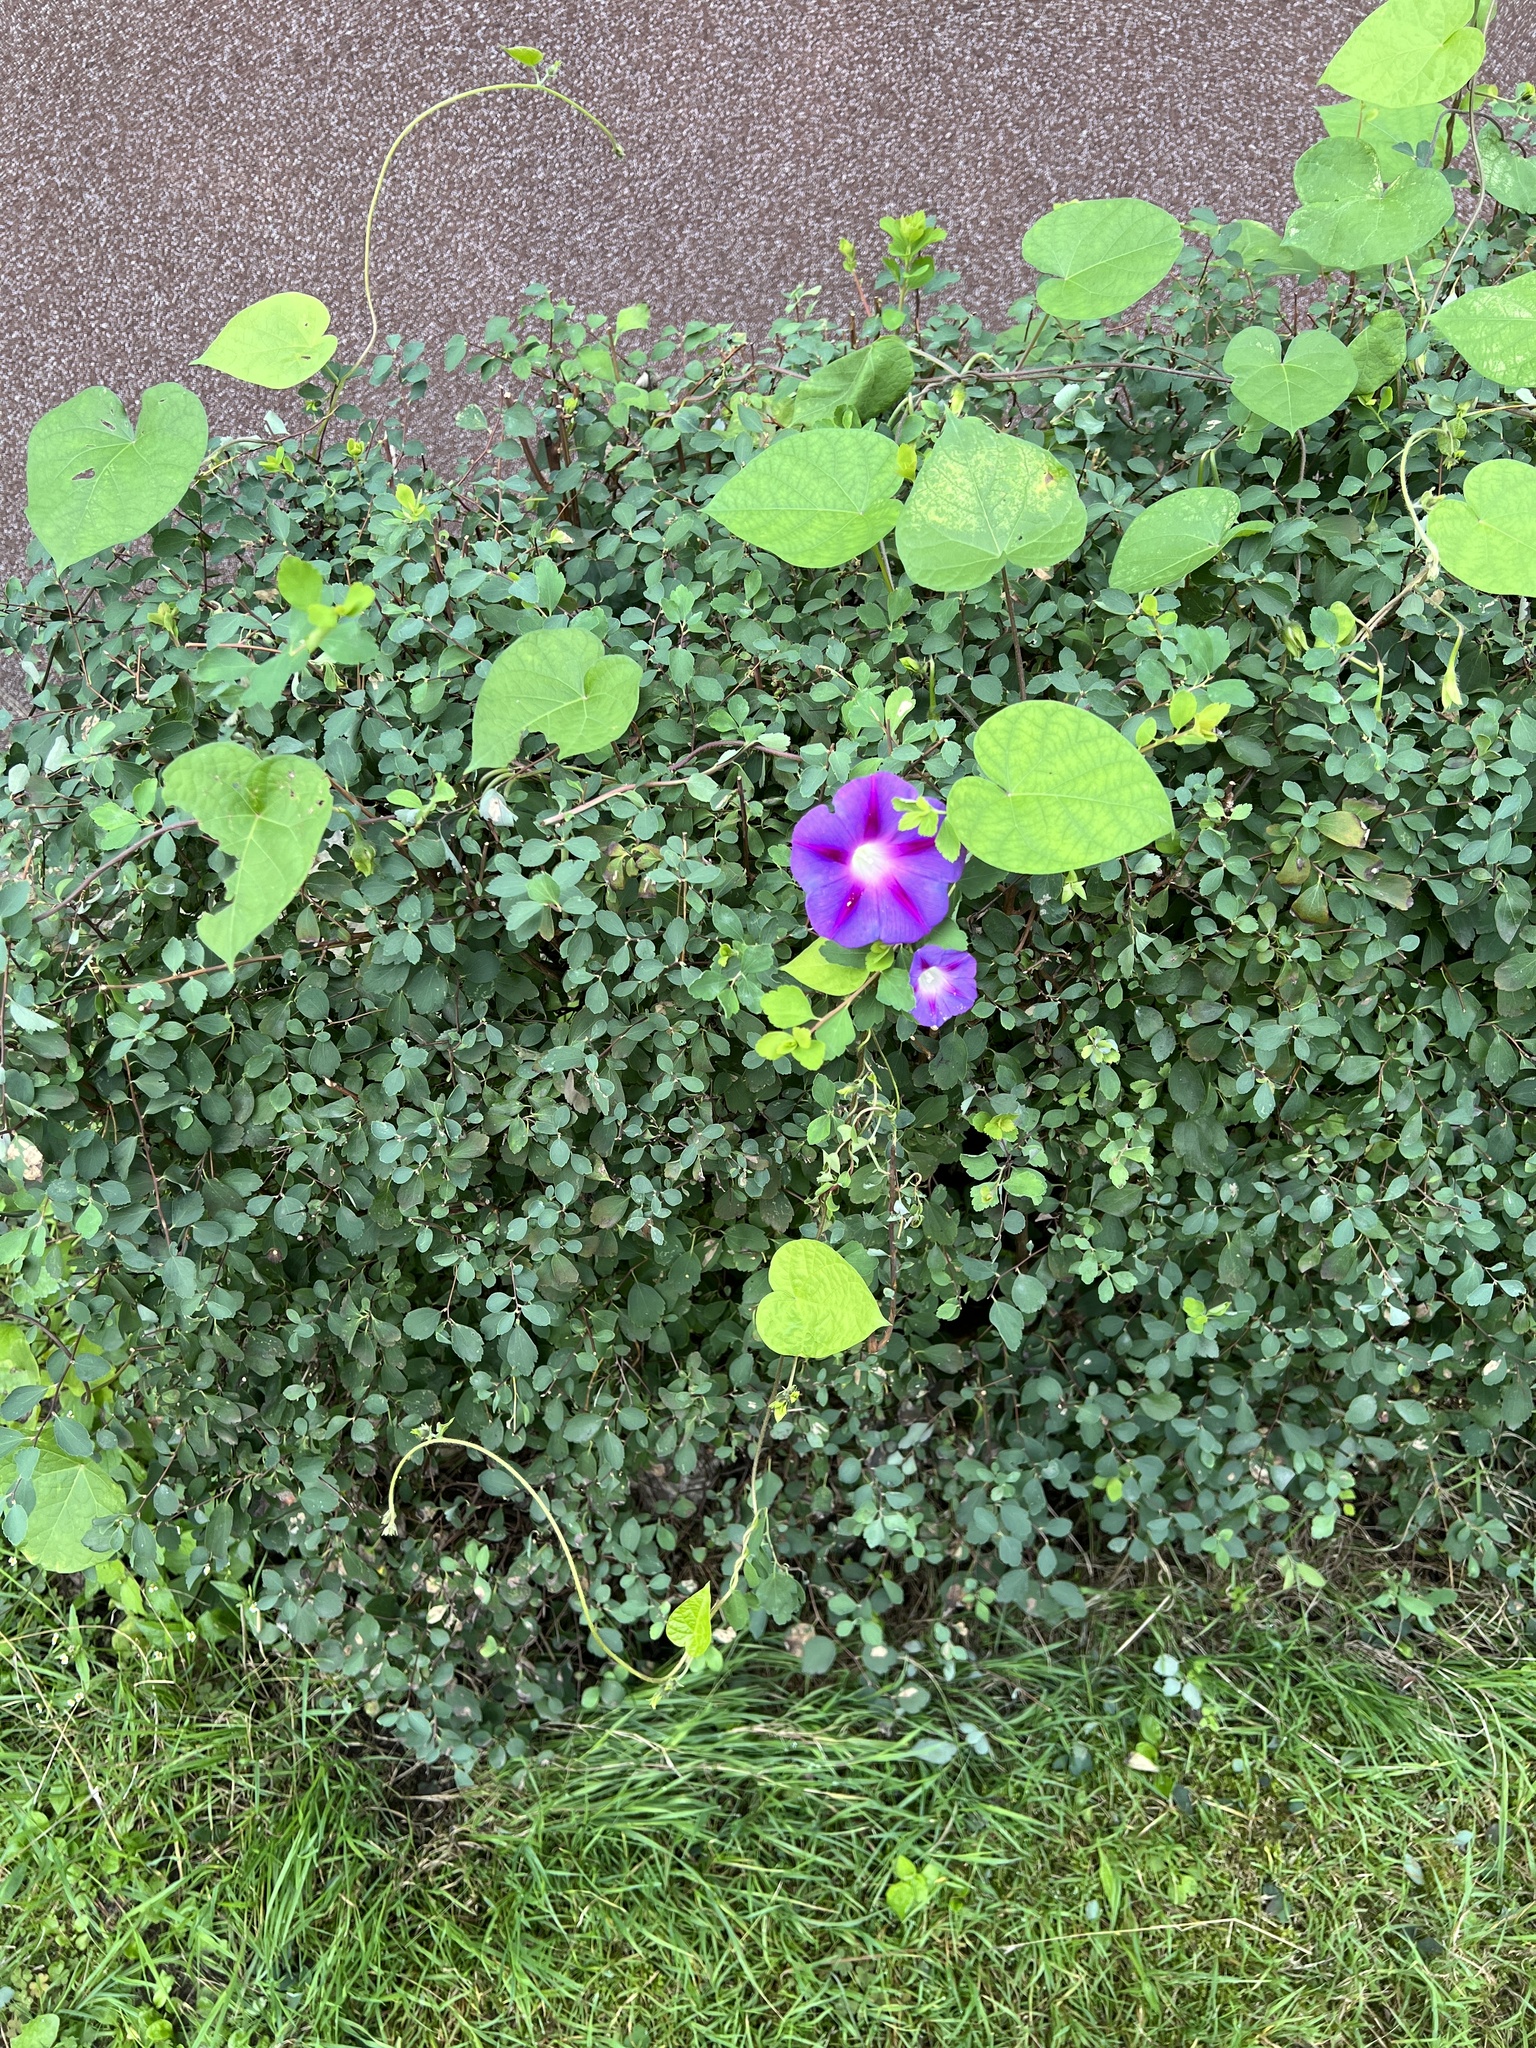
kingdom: Plantae
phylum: Tracheophyta
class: Magnoliopsida
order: Solanales
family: Convolvulaceae
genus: Ipomoea
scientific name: Ipomoea purpurea
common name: Common morning-glory
